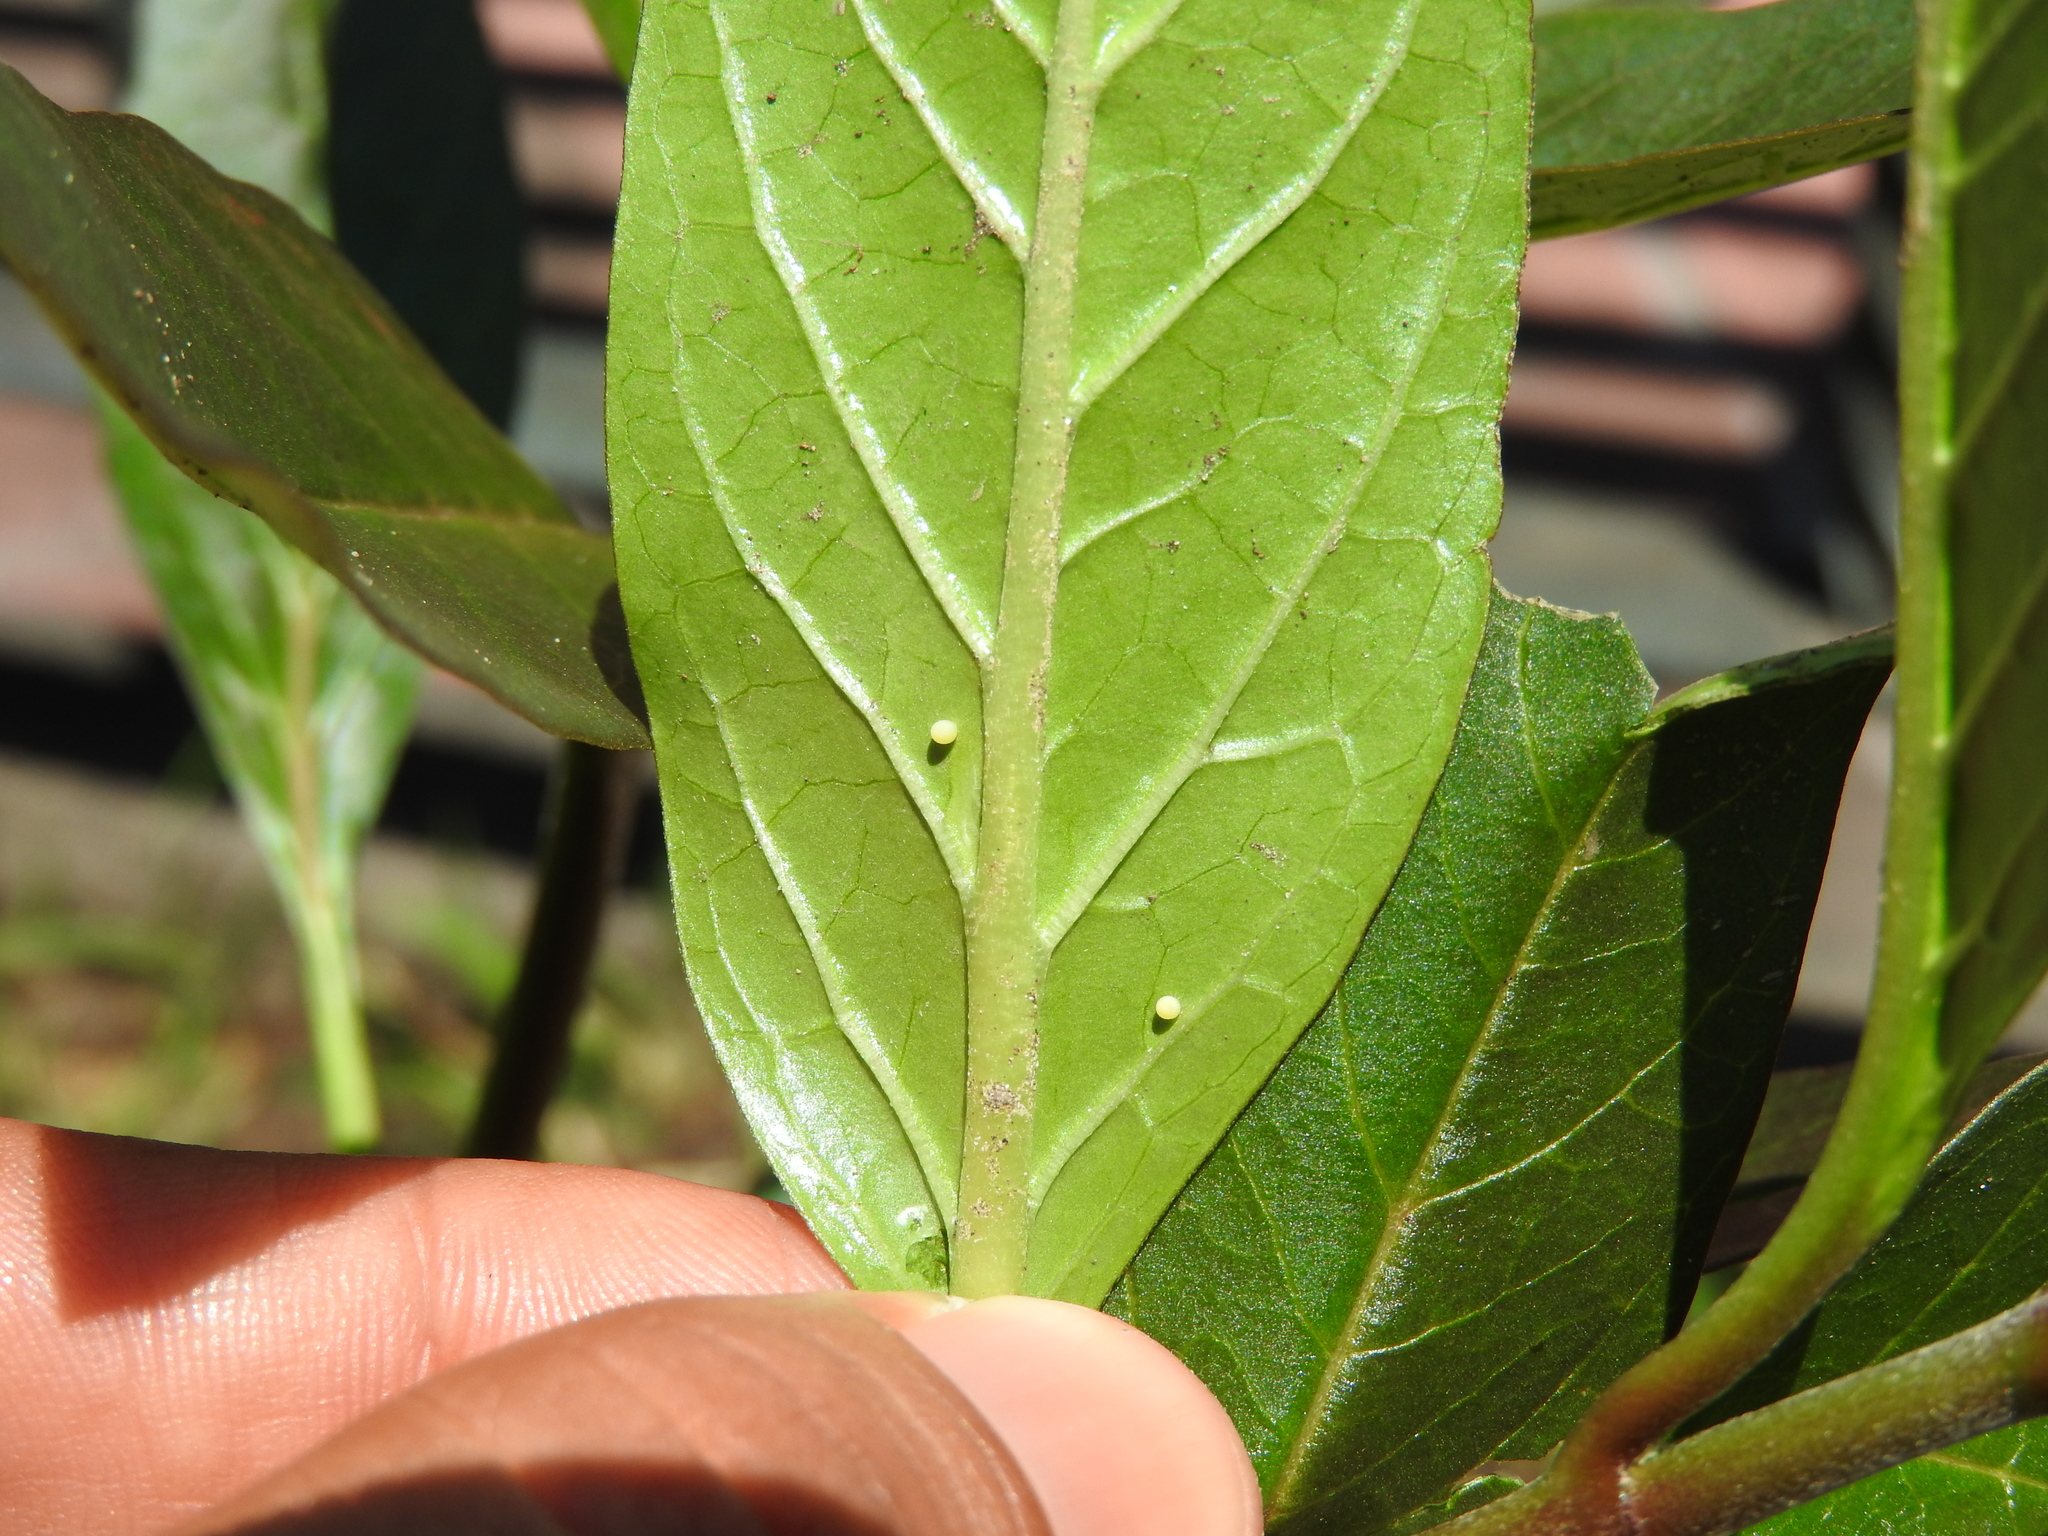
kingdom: Animalia
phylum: Arthropoda
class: Insecta
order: Lepidoptera
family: Nymphalidae
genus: Danaus
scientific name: Danaus plexippus
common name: Monarch
